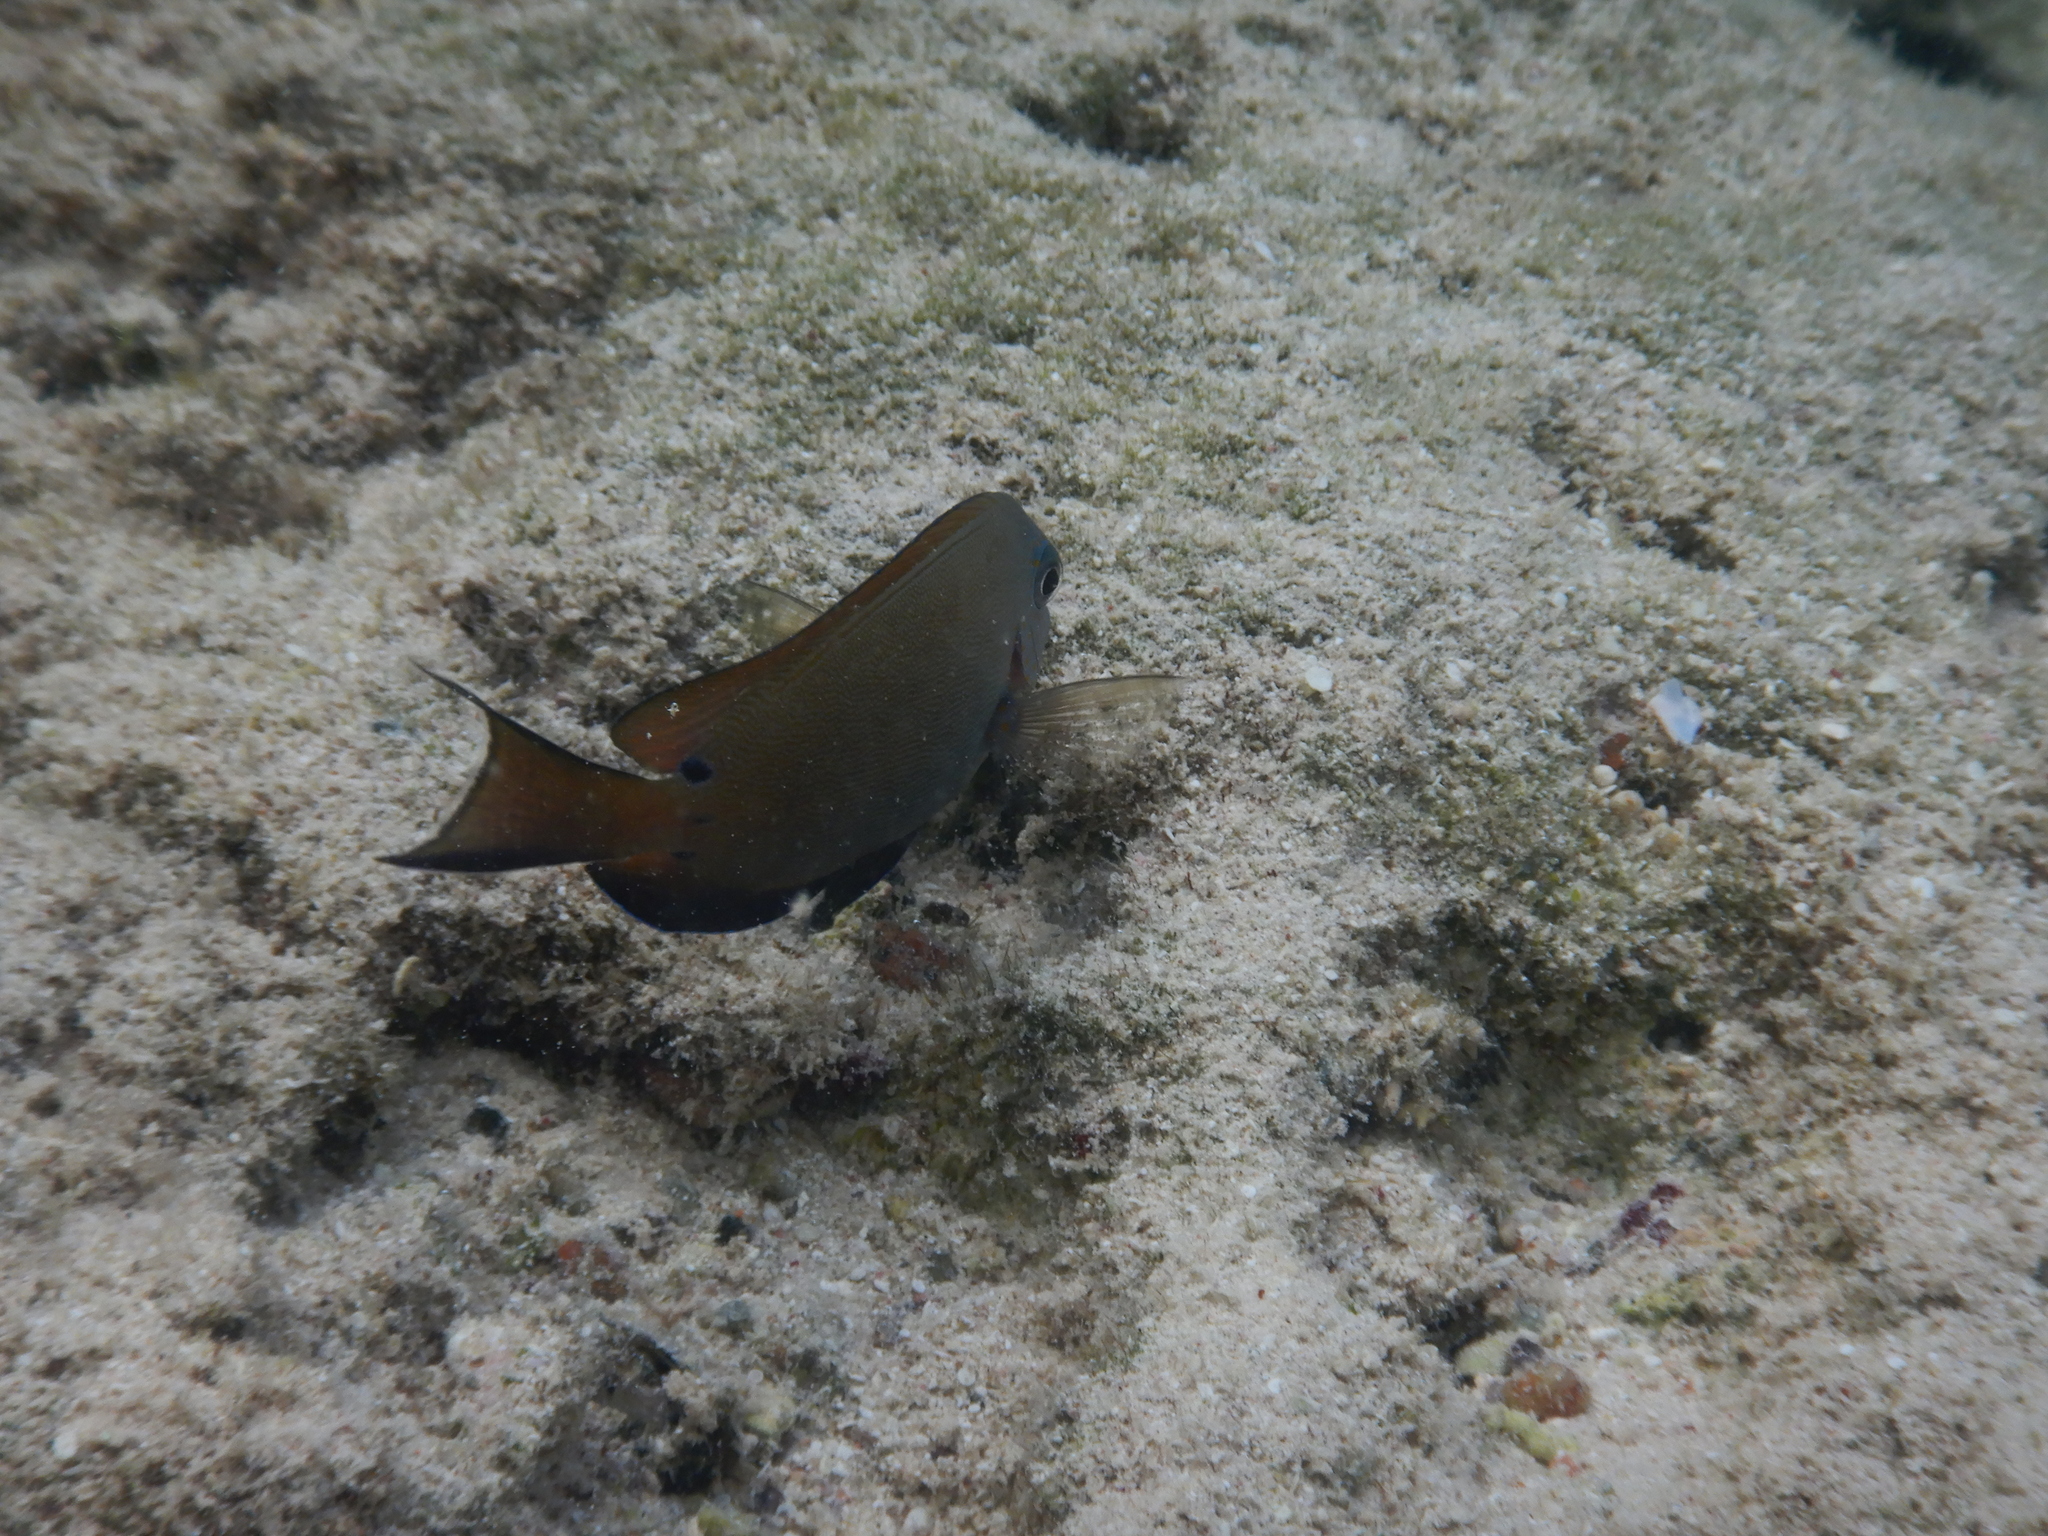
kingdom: Animalia
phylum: Chordata
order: Perciformes
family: Acanthuridae
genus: Acanthurus
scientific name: Acanthurus nigrofuscus
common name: Blackspot surgeonfish
